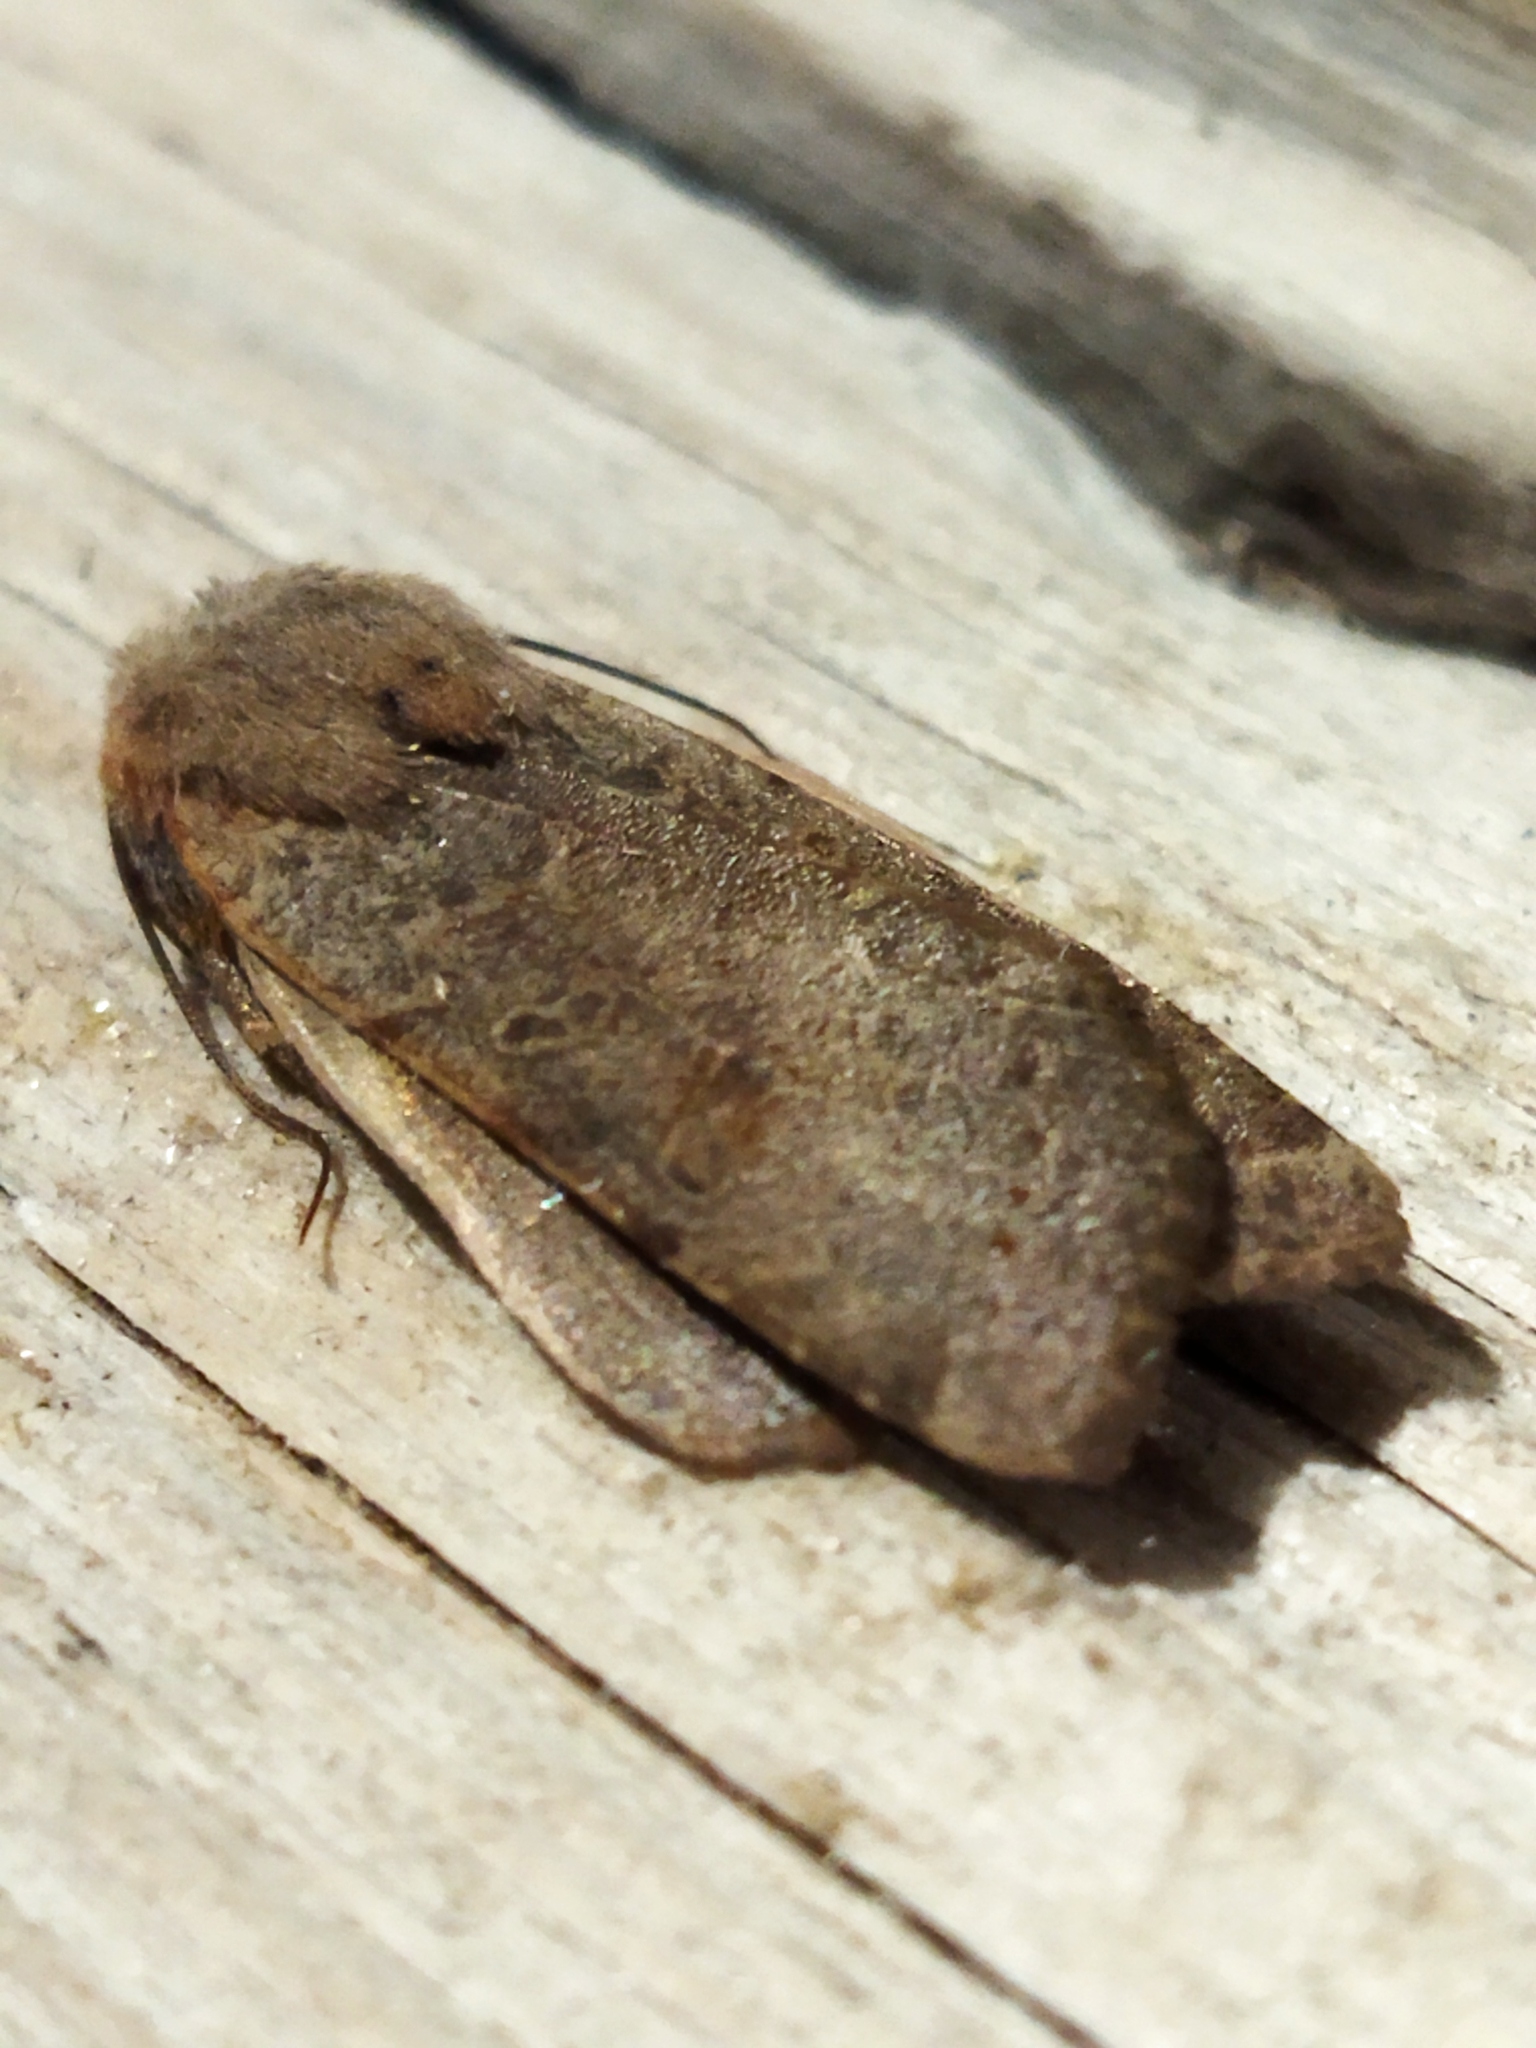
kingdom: Animalia
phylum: Arthropoda
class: Insecta
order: Lepidoptera
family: Noctuidae
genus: Agrochola
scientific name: Agrochola lychnidis
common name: Beaded chestnut
